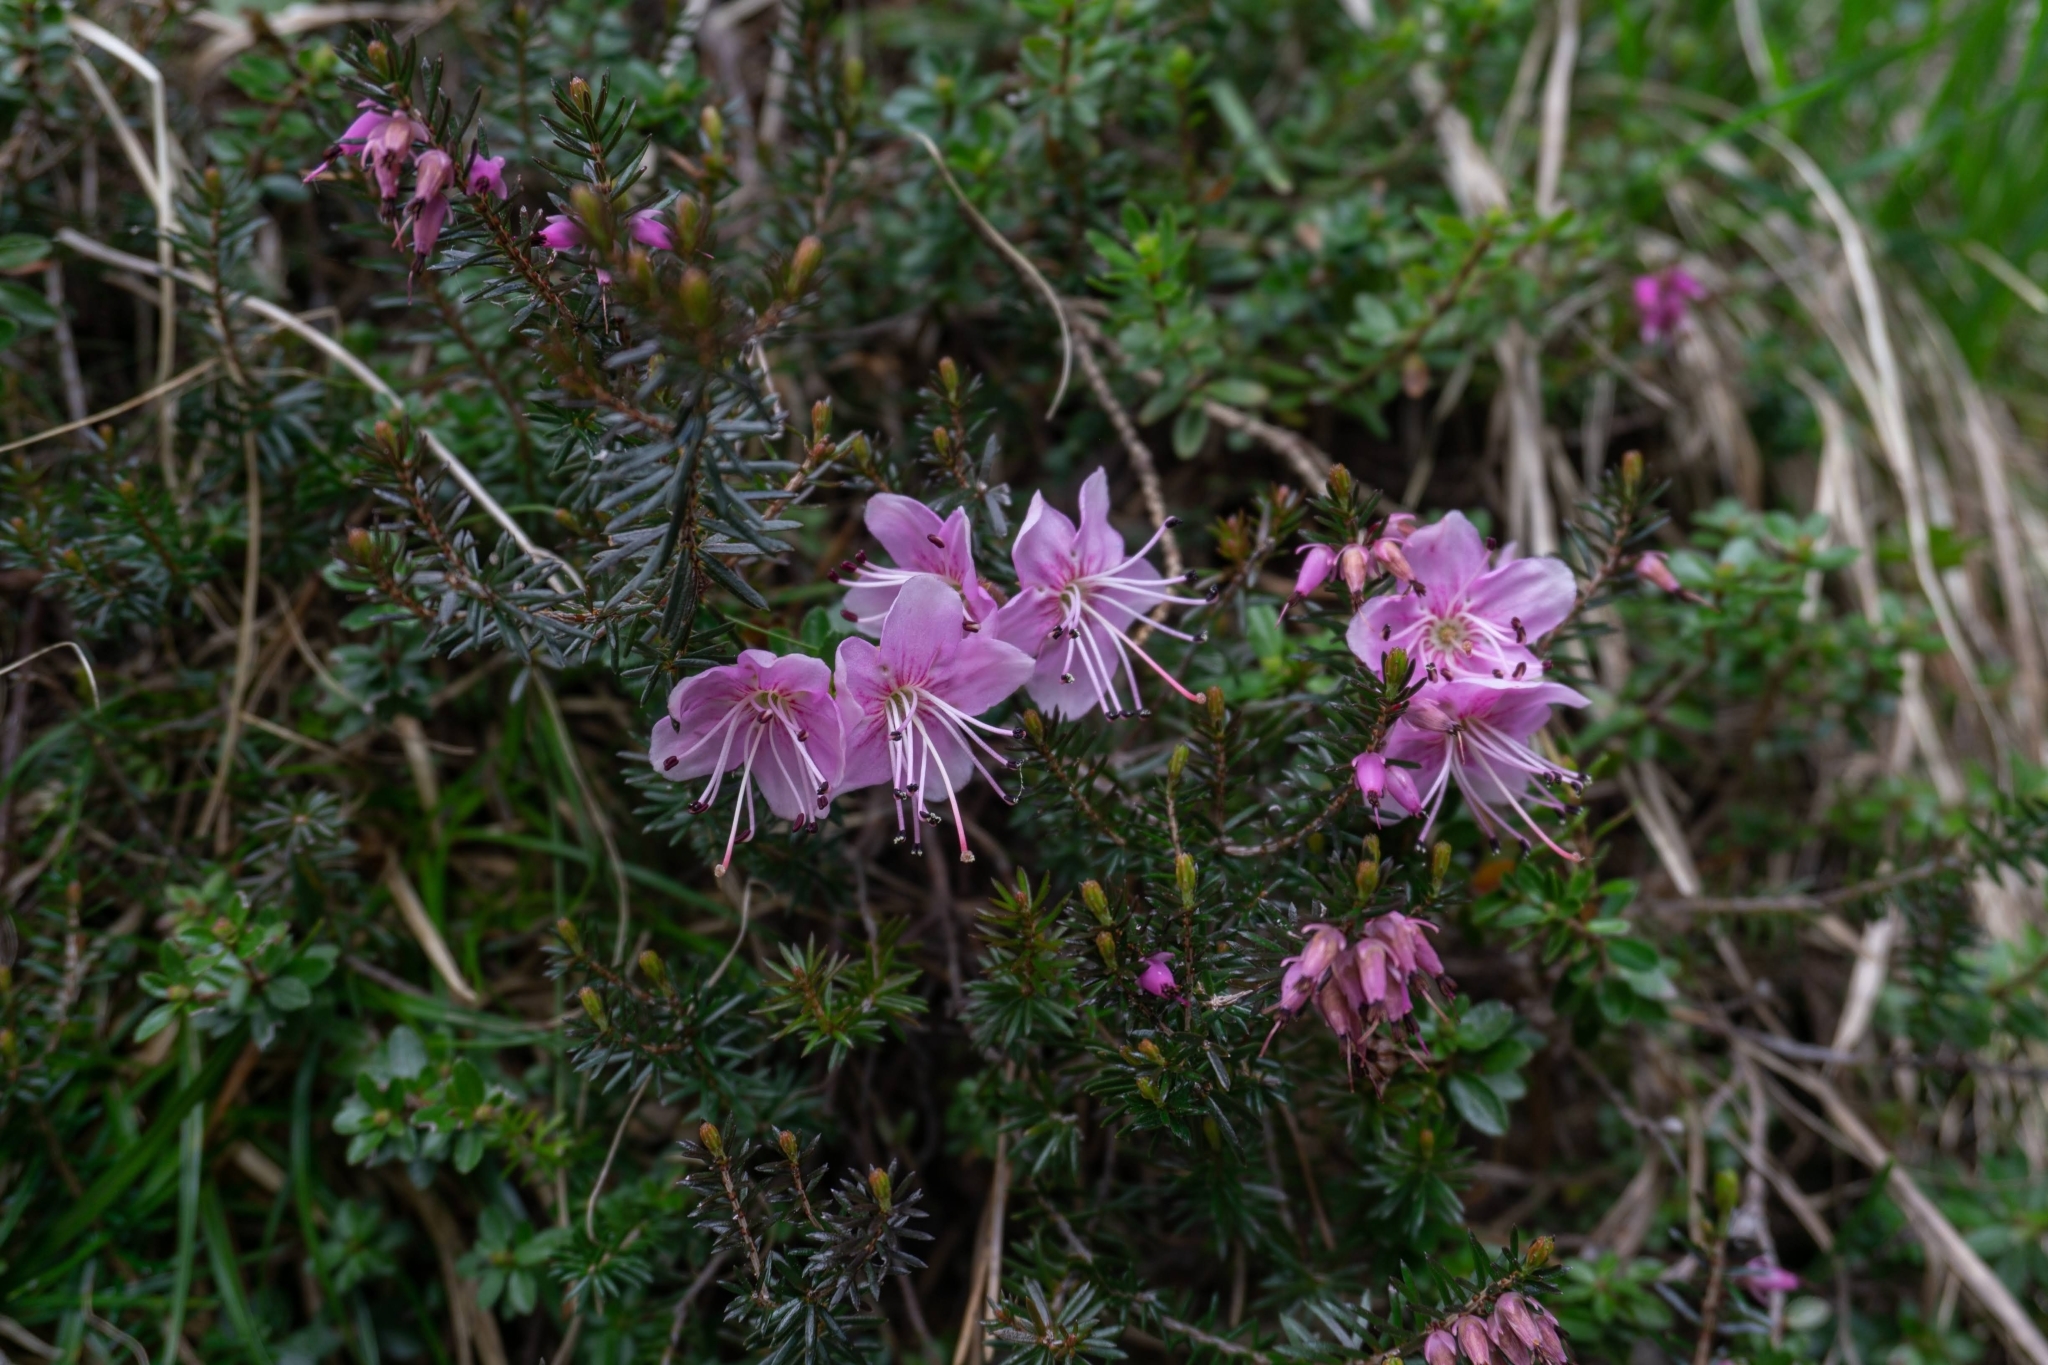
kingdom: Plantae
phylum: Tracheophyta
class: Magnoliopsida
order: Ericales
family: Ericaceae
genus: Erica
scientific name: Erica carnea
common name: Winter heath
